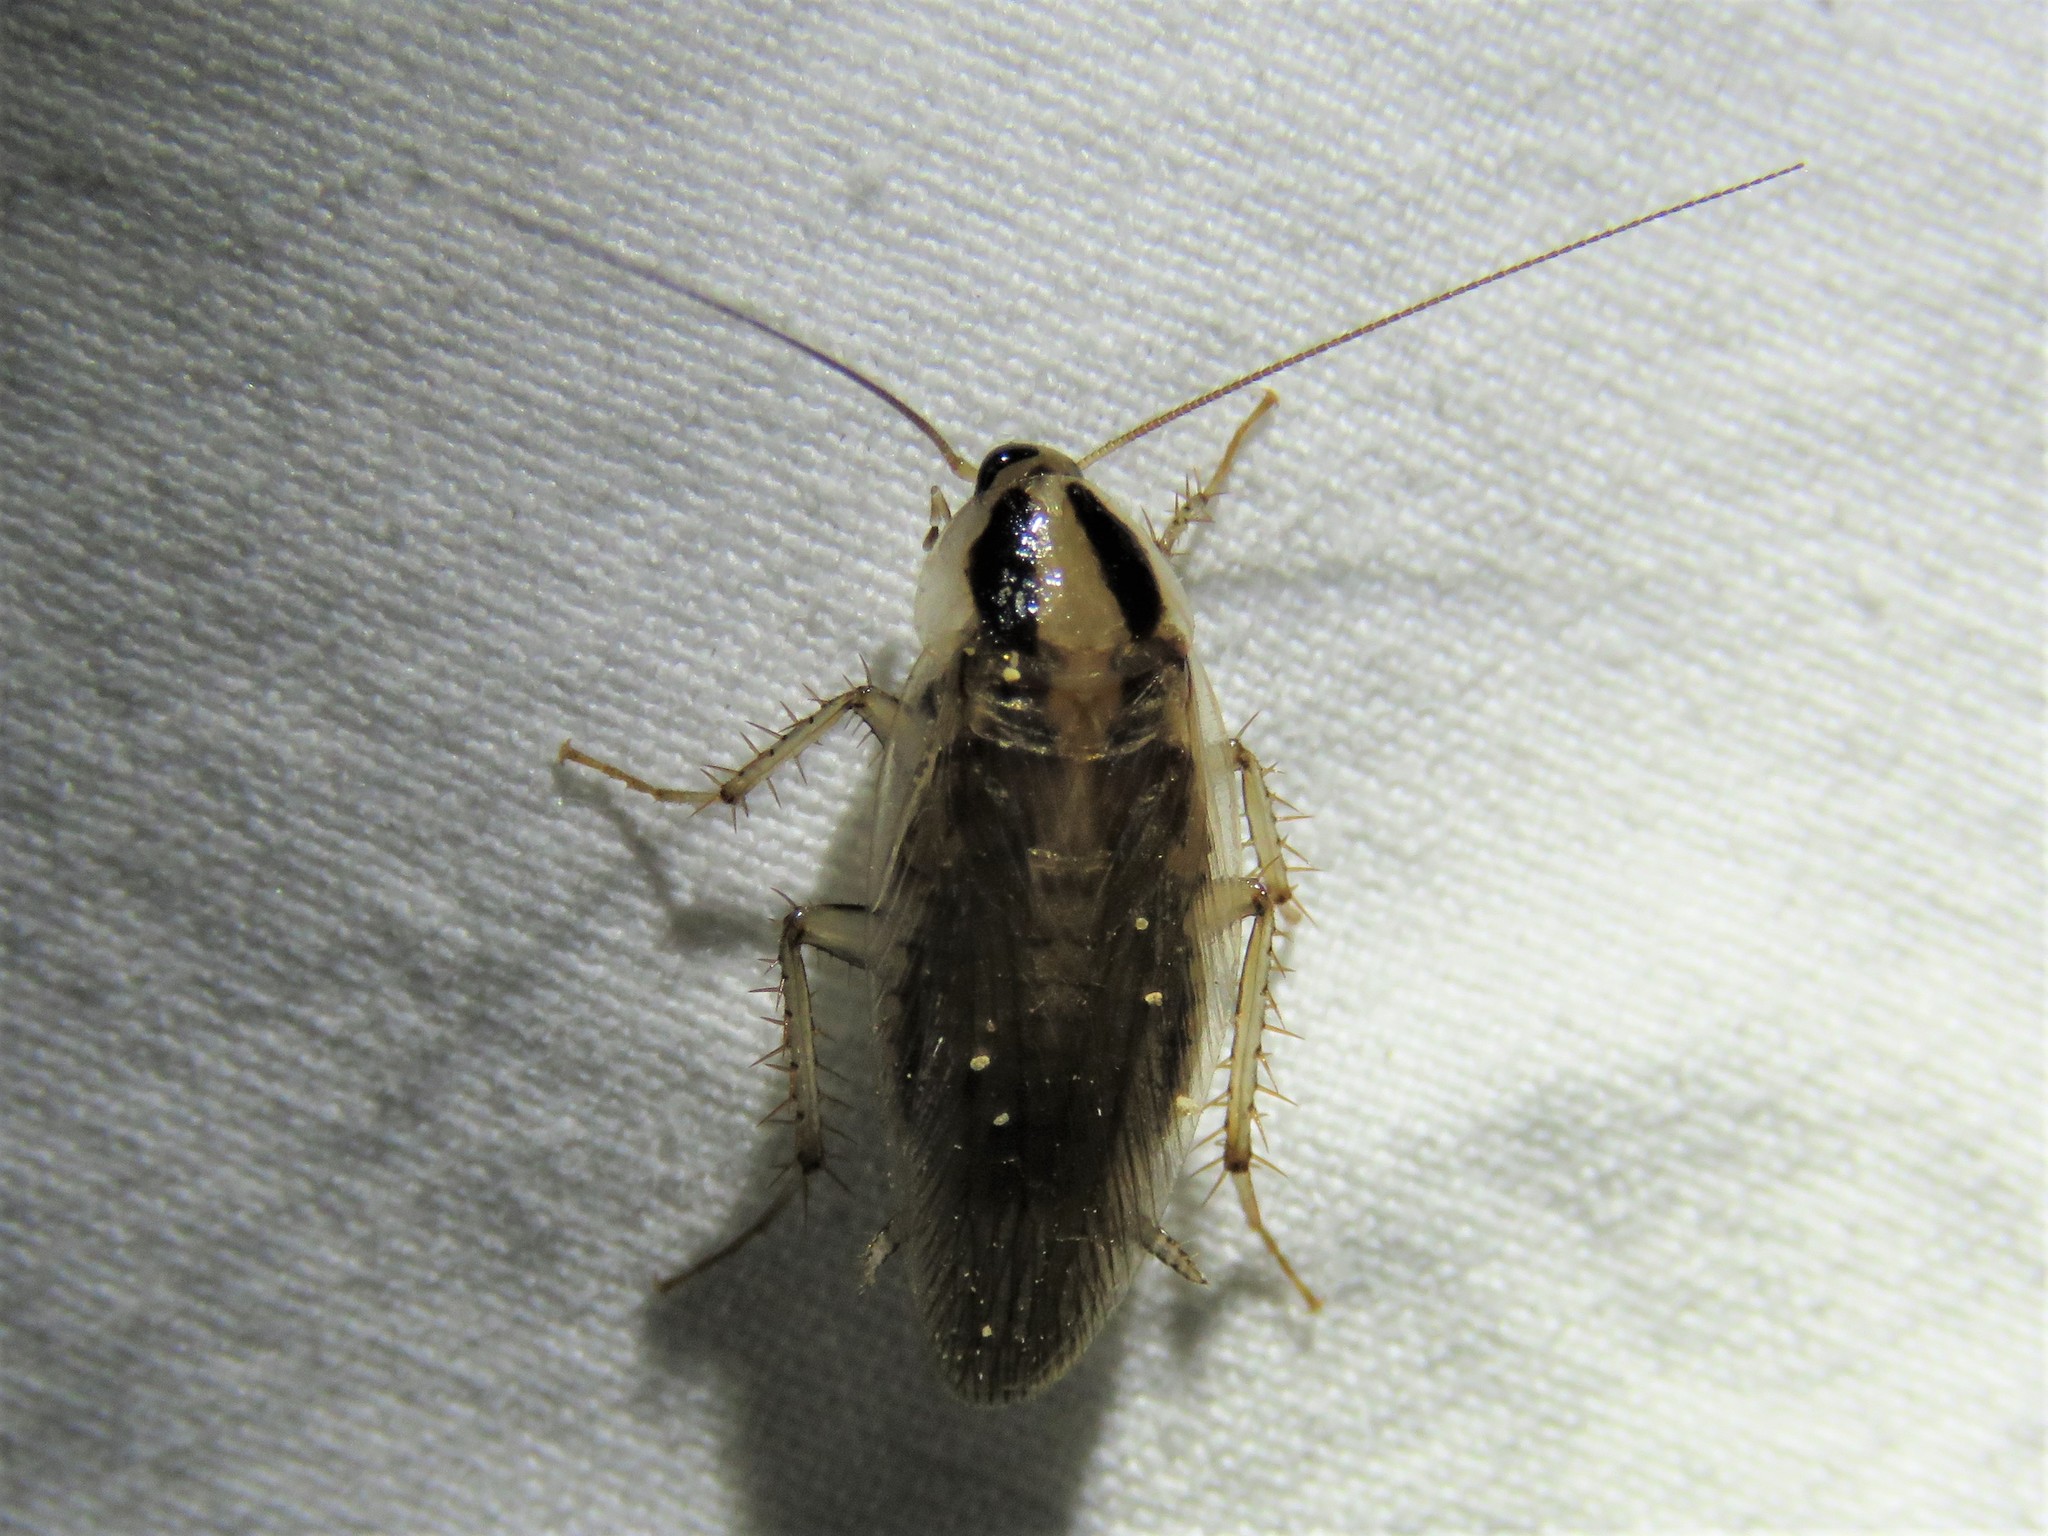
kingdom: Animalia
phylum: Arthropoda
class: Insecta
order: Blattodea
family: Ectobiidae
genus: Blattella
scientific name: Blattella vaga
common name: Field cockroach
